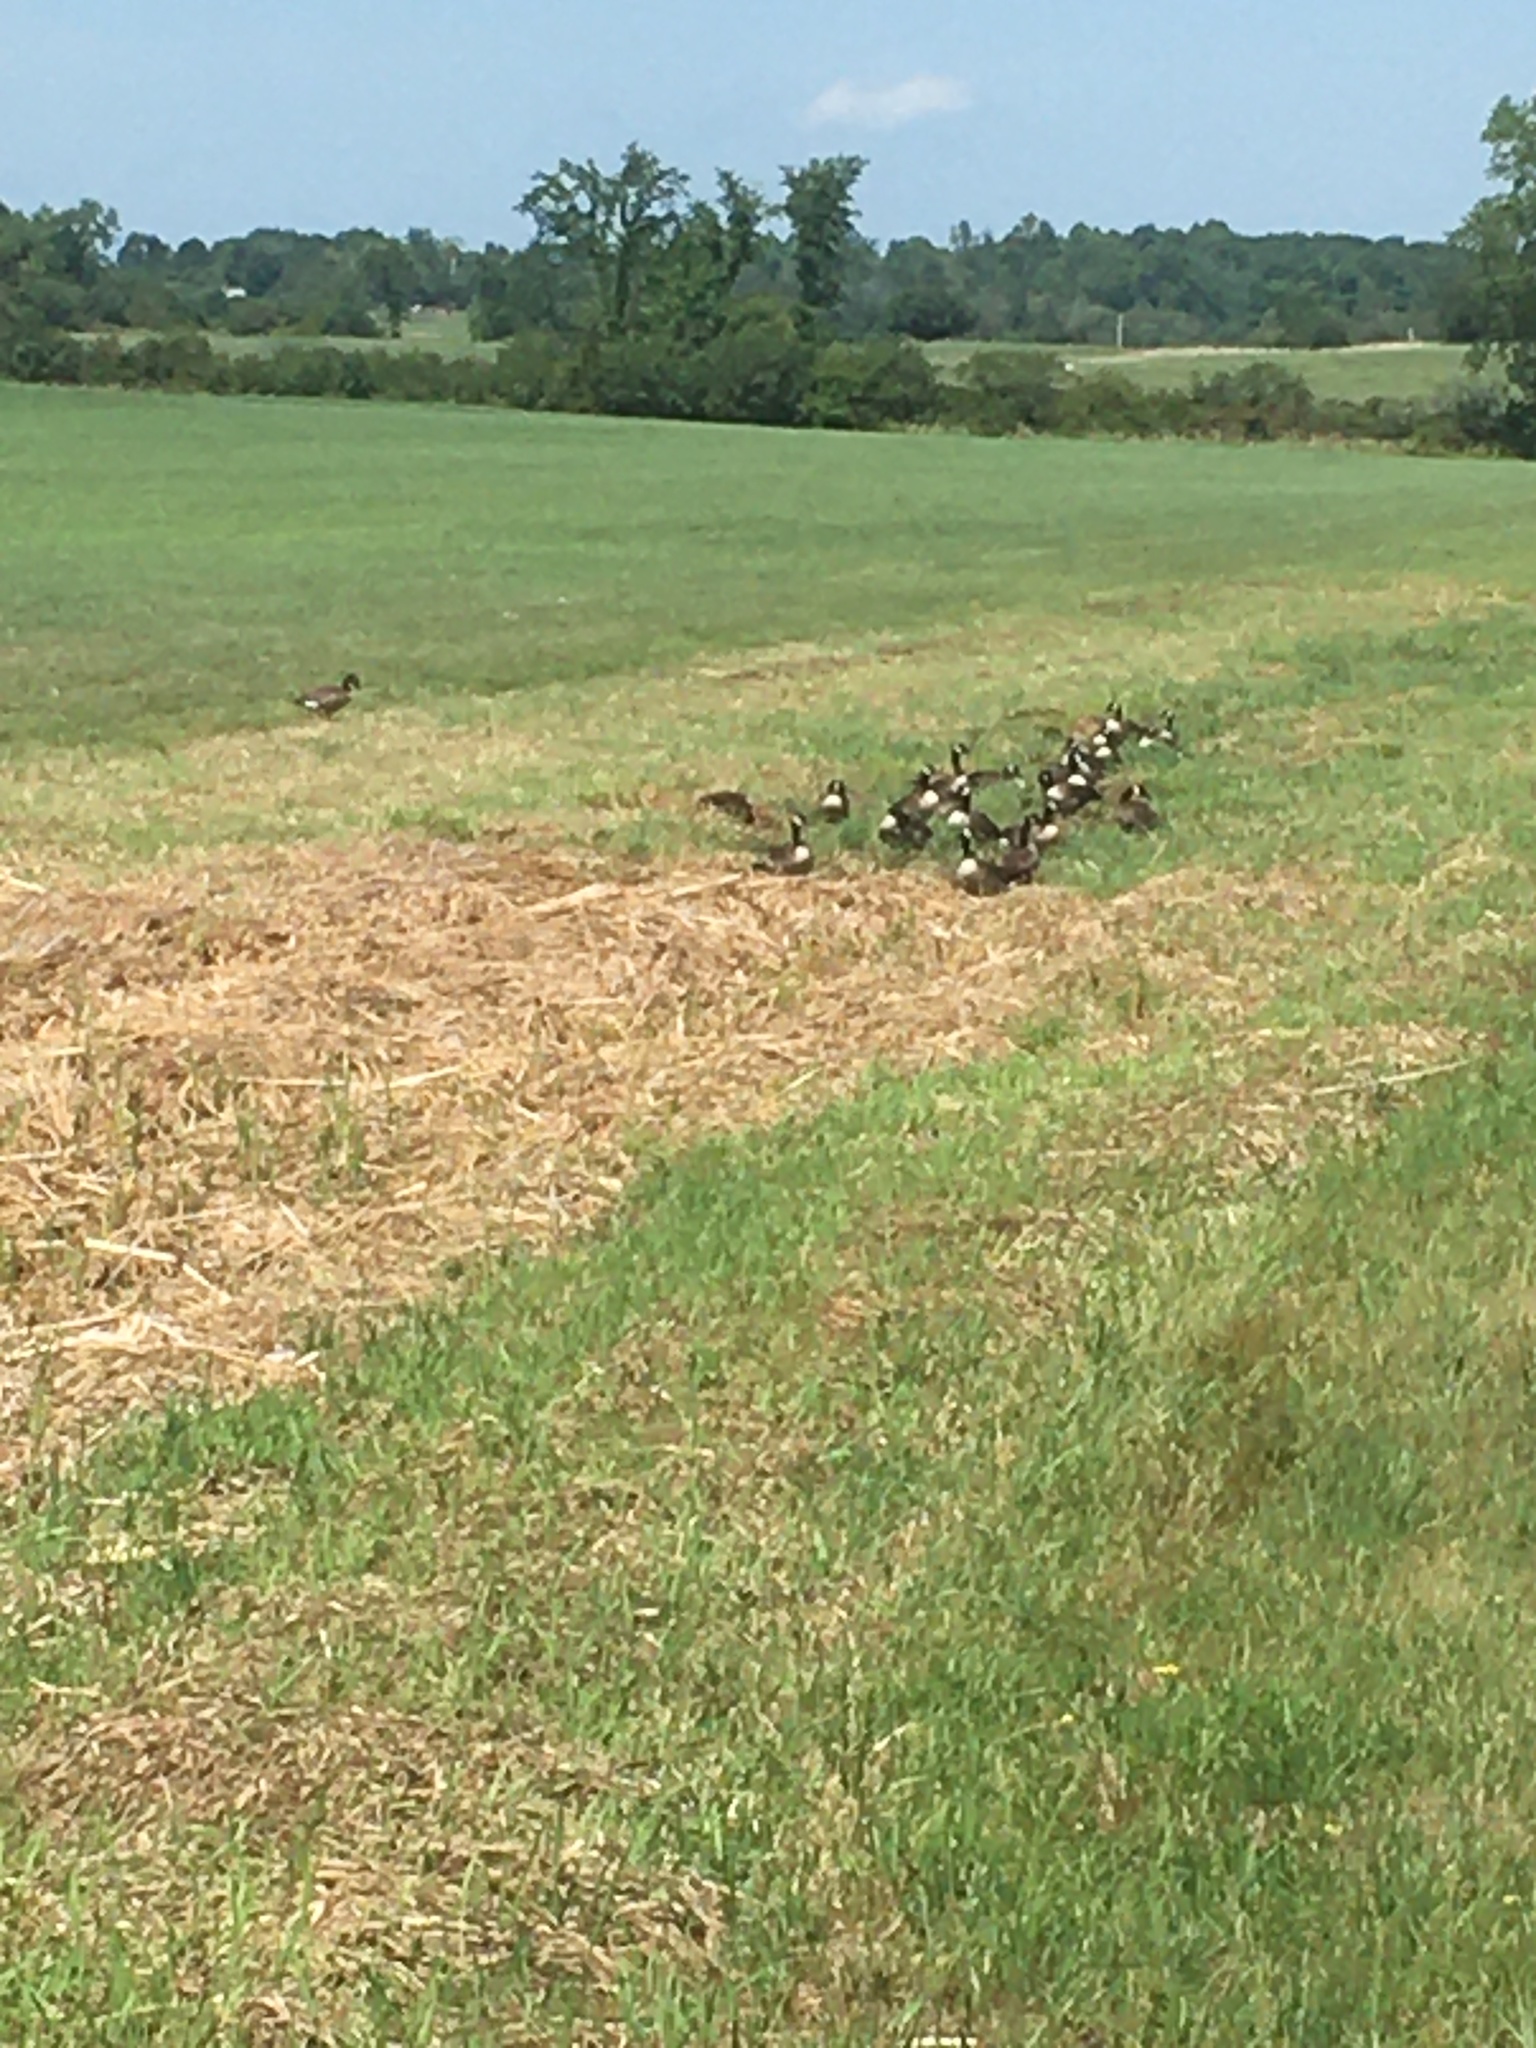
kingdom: Animalia
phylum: Chordata
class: Aves
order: Anseriformes
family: Anatidae
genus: Branta
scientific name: Branta canadensis
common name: Canada goose
